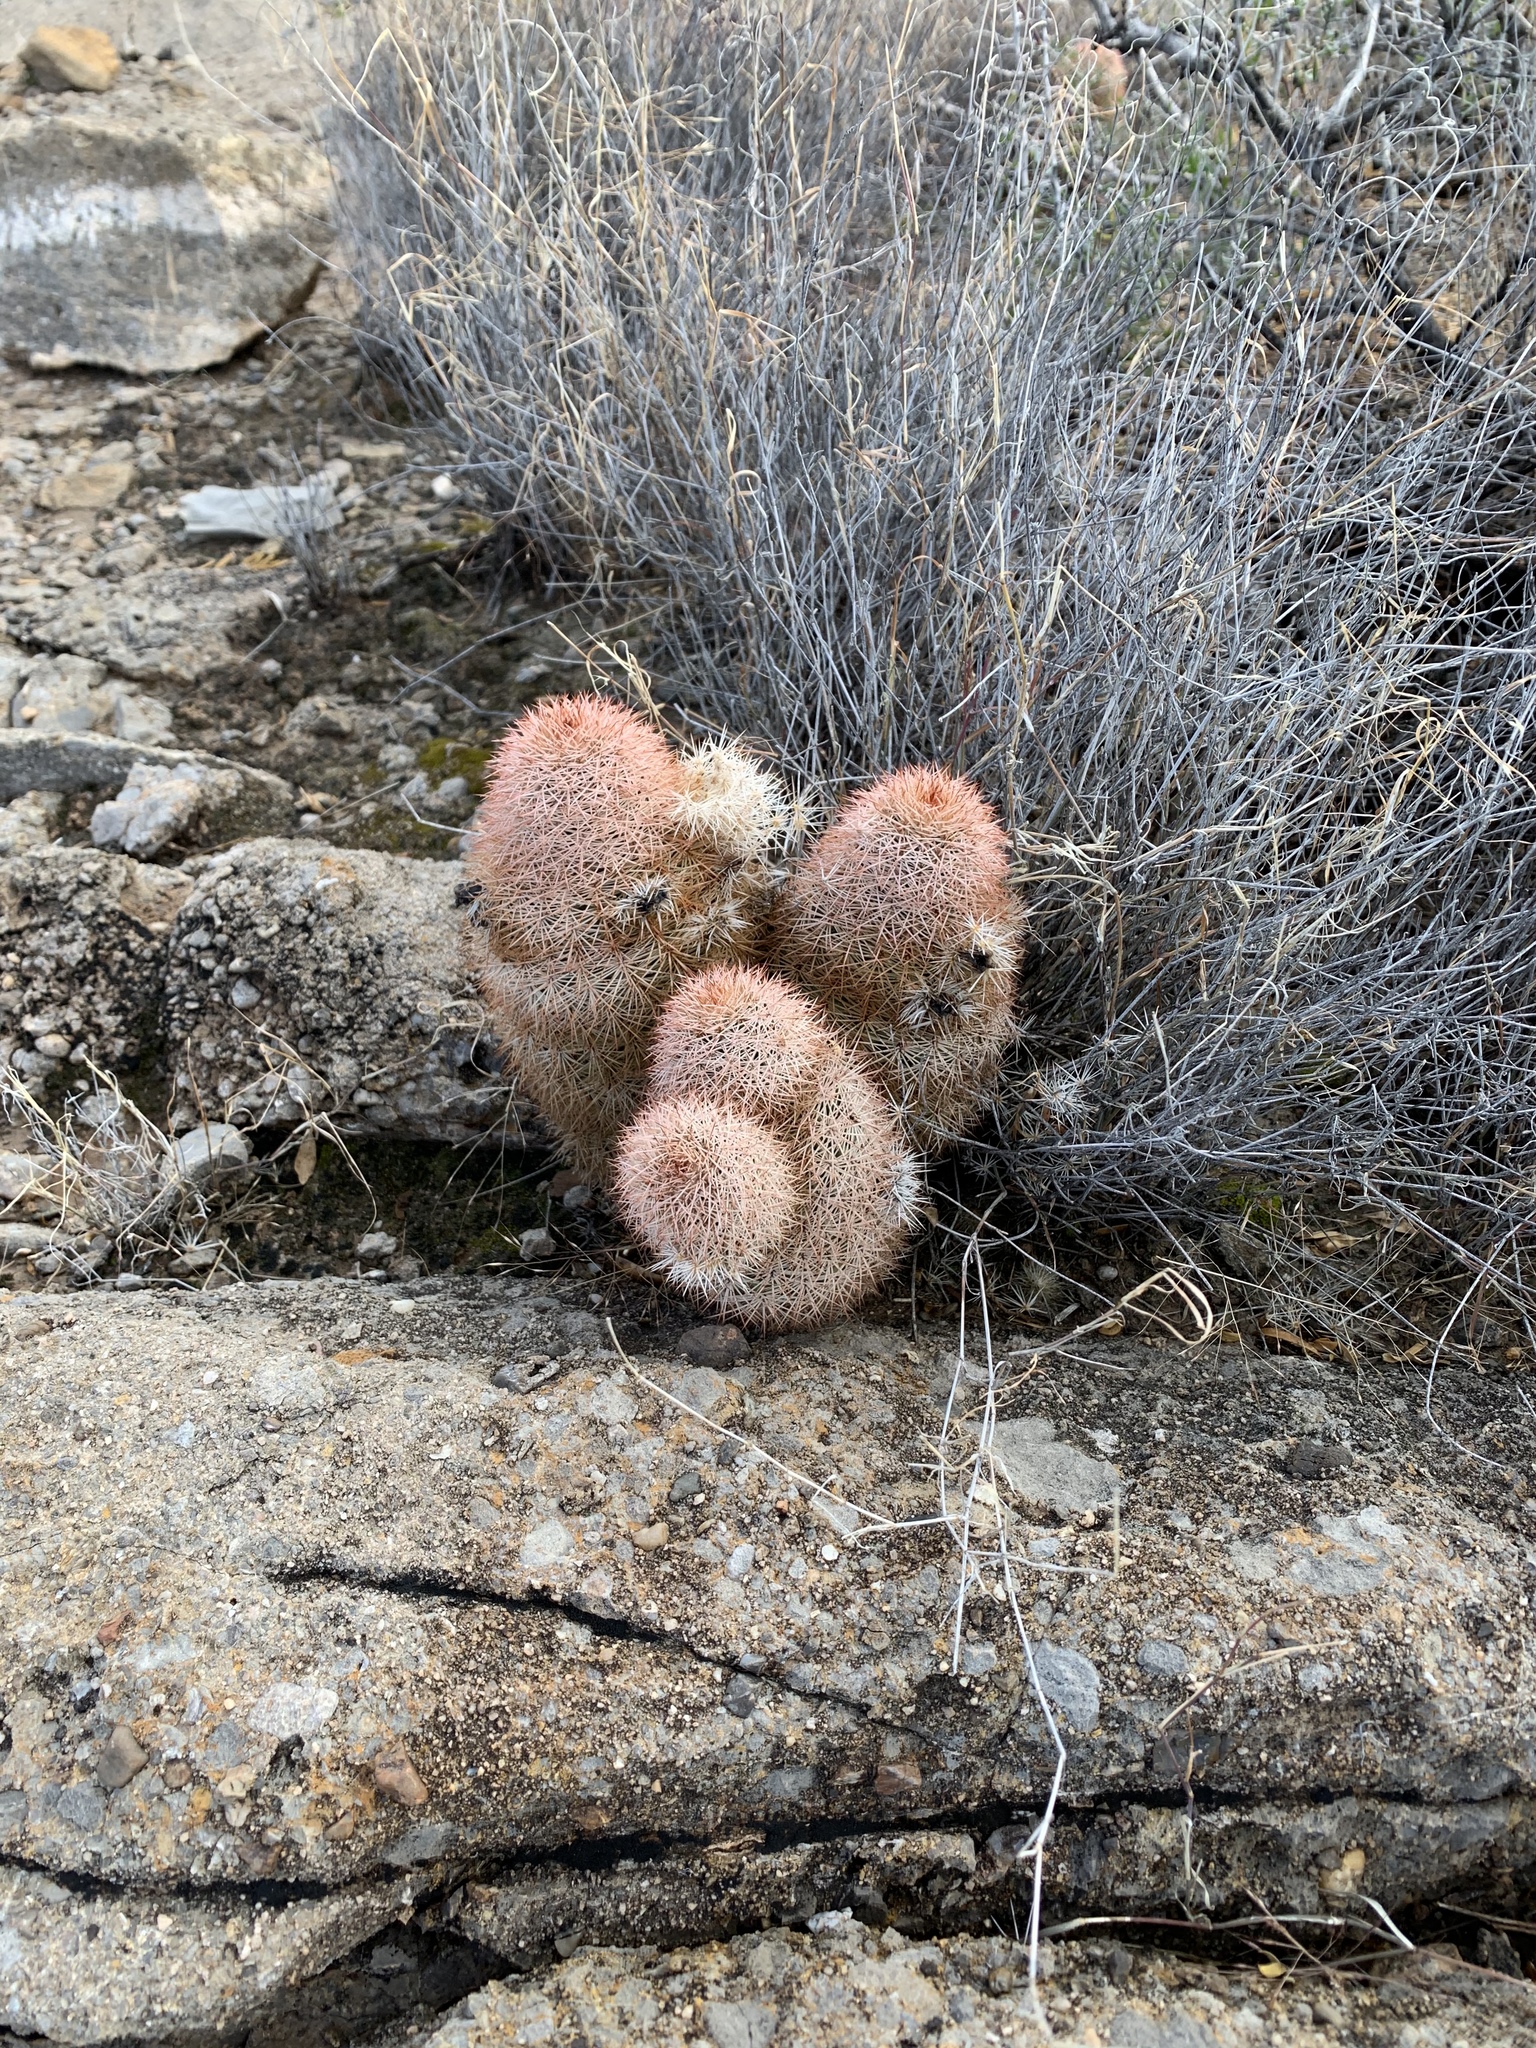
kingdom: Plantae
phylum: Tracheophyta
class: Magnoliopsida
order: Caryophyllales
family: Cactaceae
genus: Echinocereus
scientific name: Echinocereus dasyacanthus
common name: Spiny hedgehog cactus
